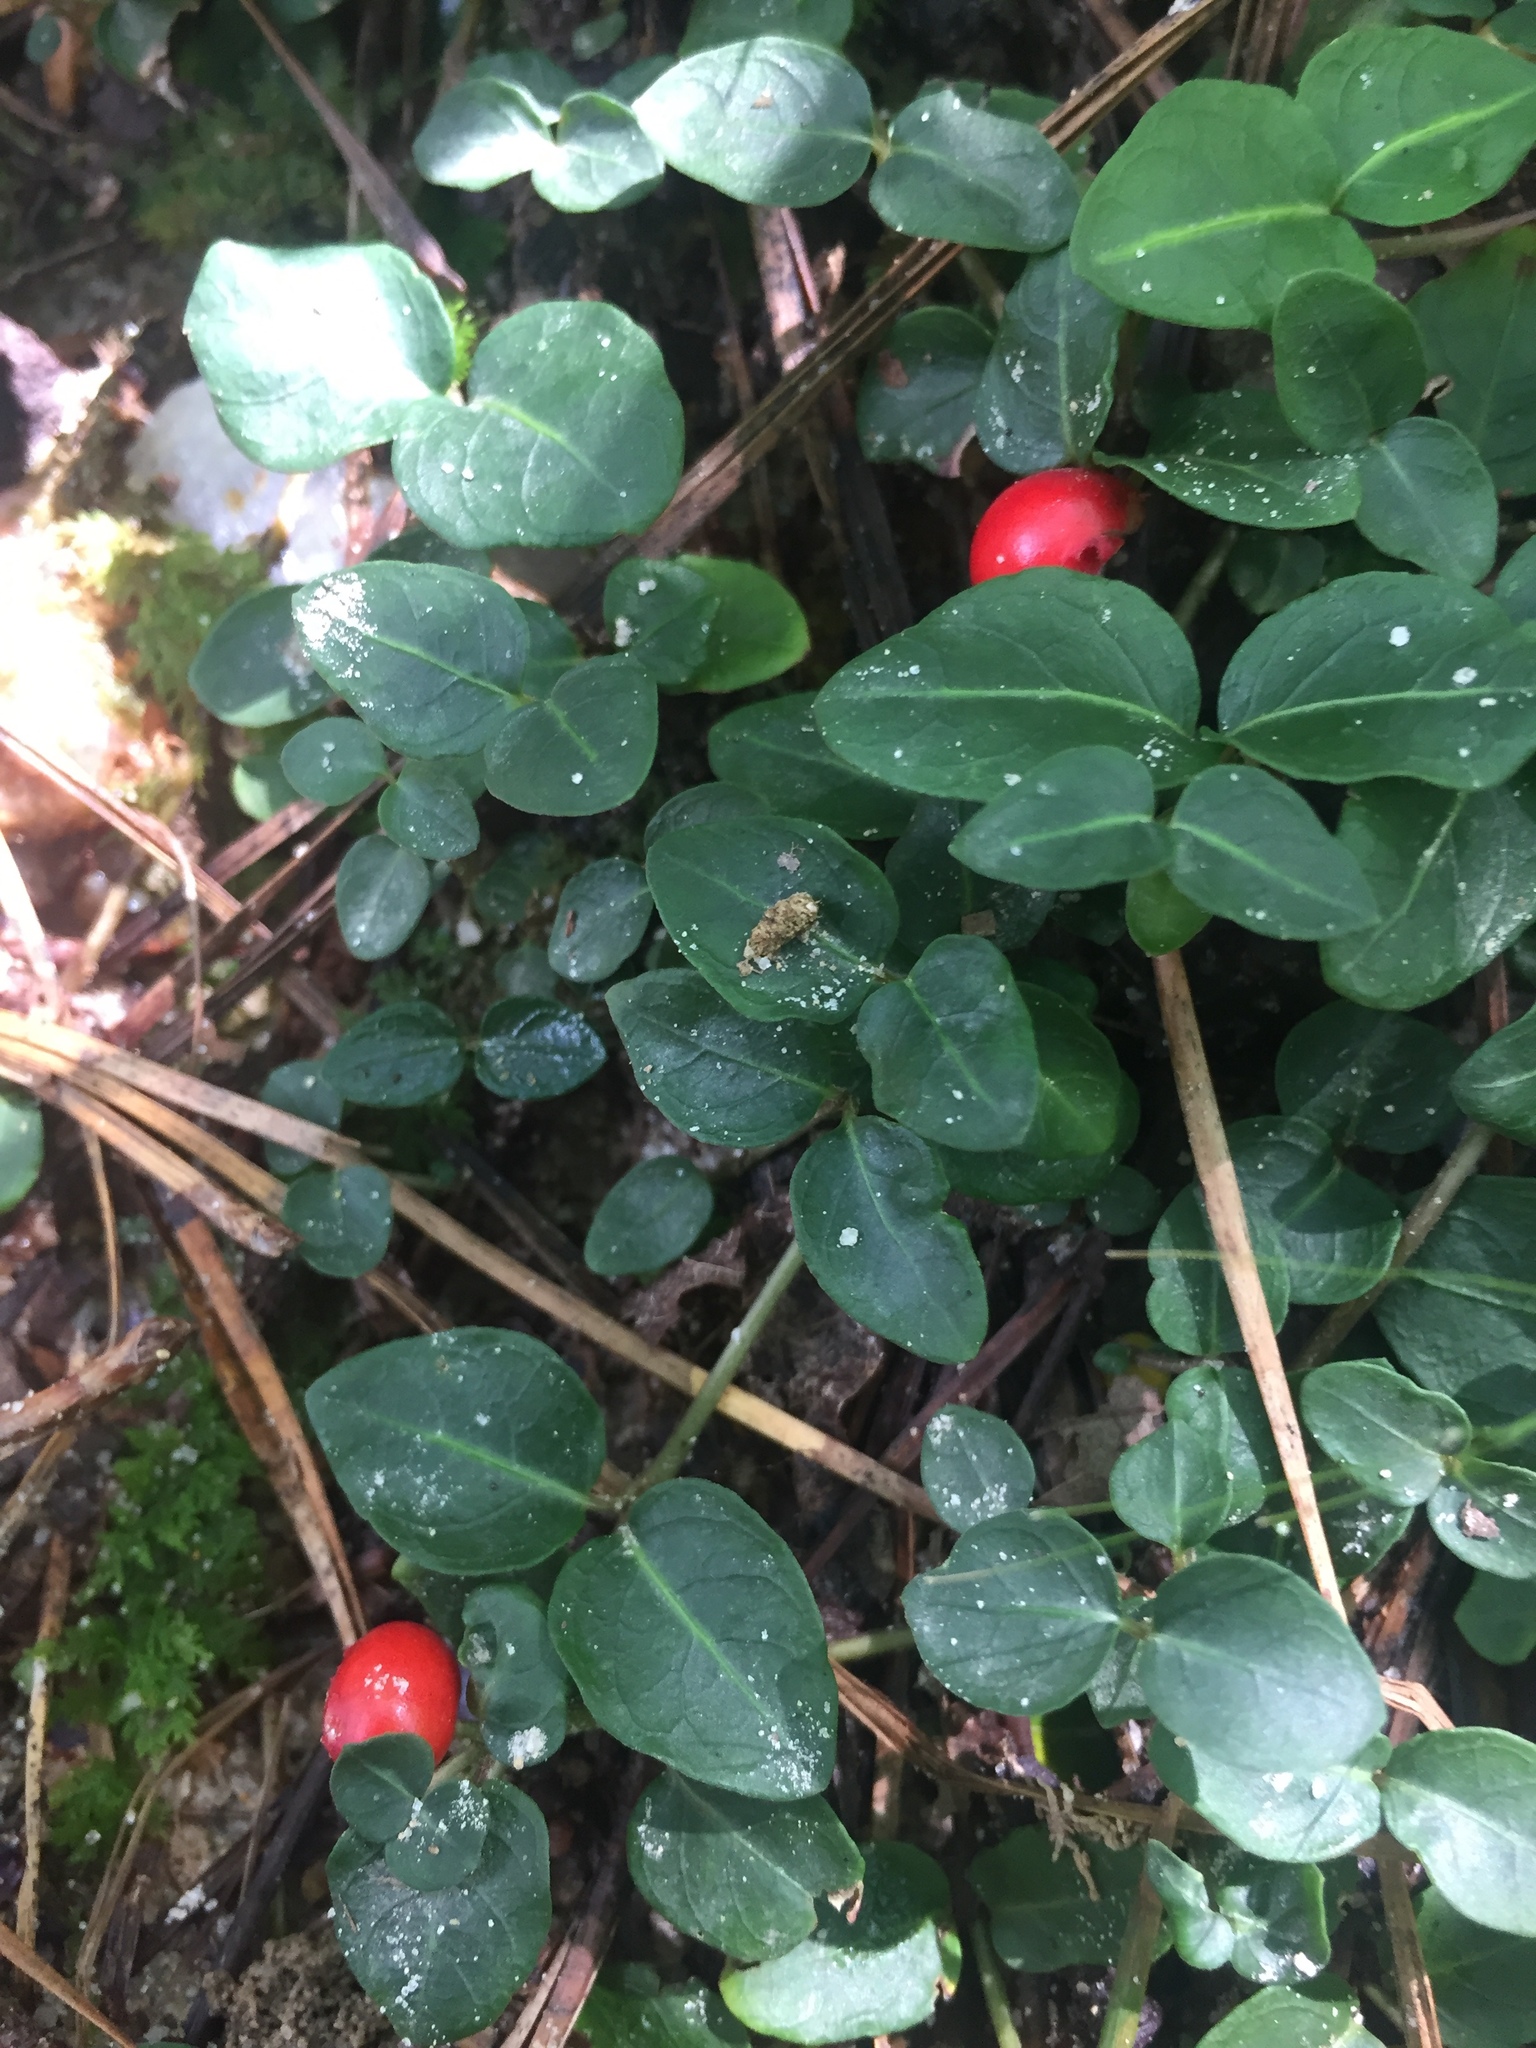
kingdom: Plantae
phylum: Tracheophyta
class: Magnoliopsida
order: Gentianales
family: Rubiaceae
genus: Mitchella
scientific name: Mitchella repens
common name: Partridge-berry
